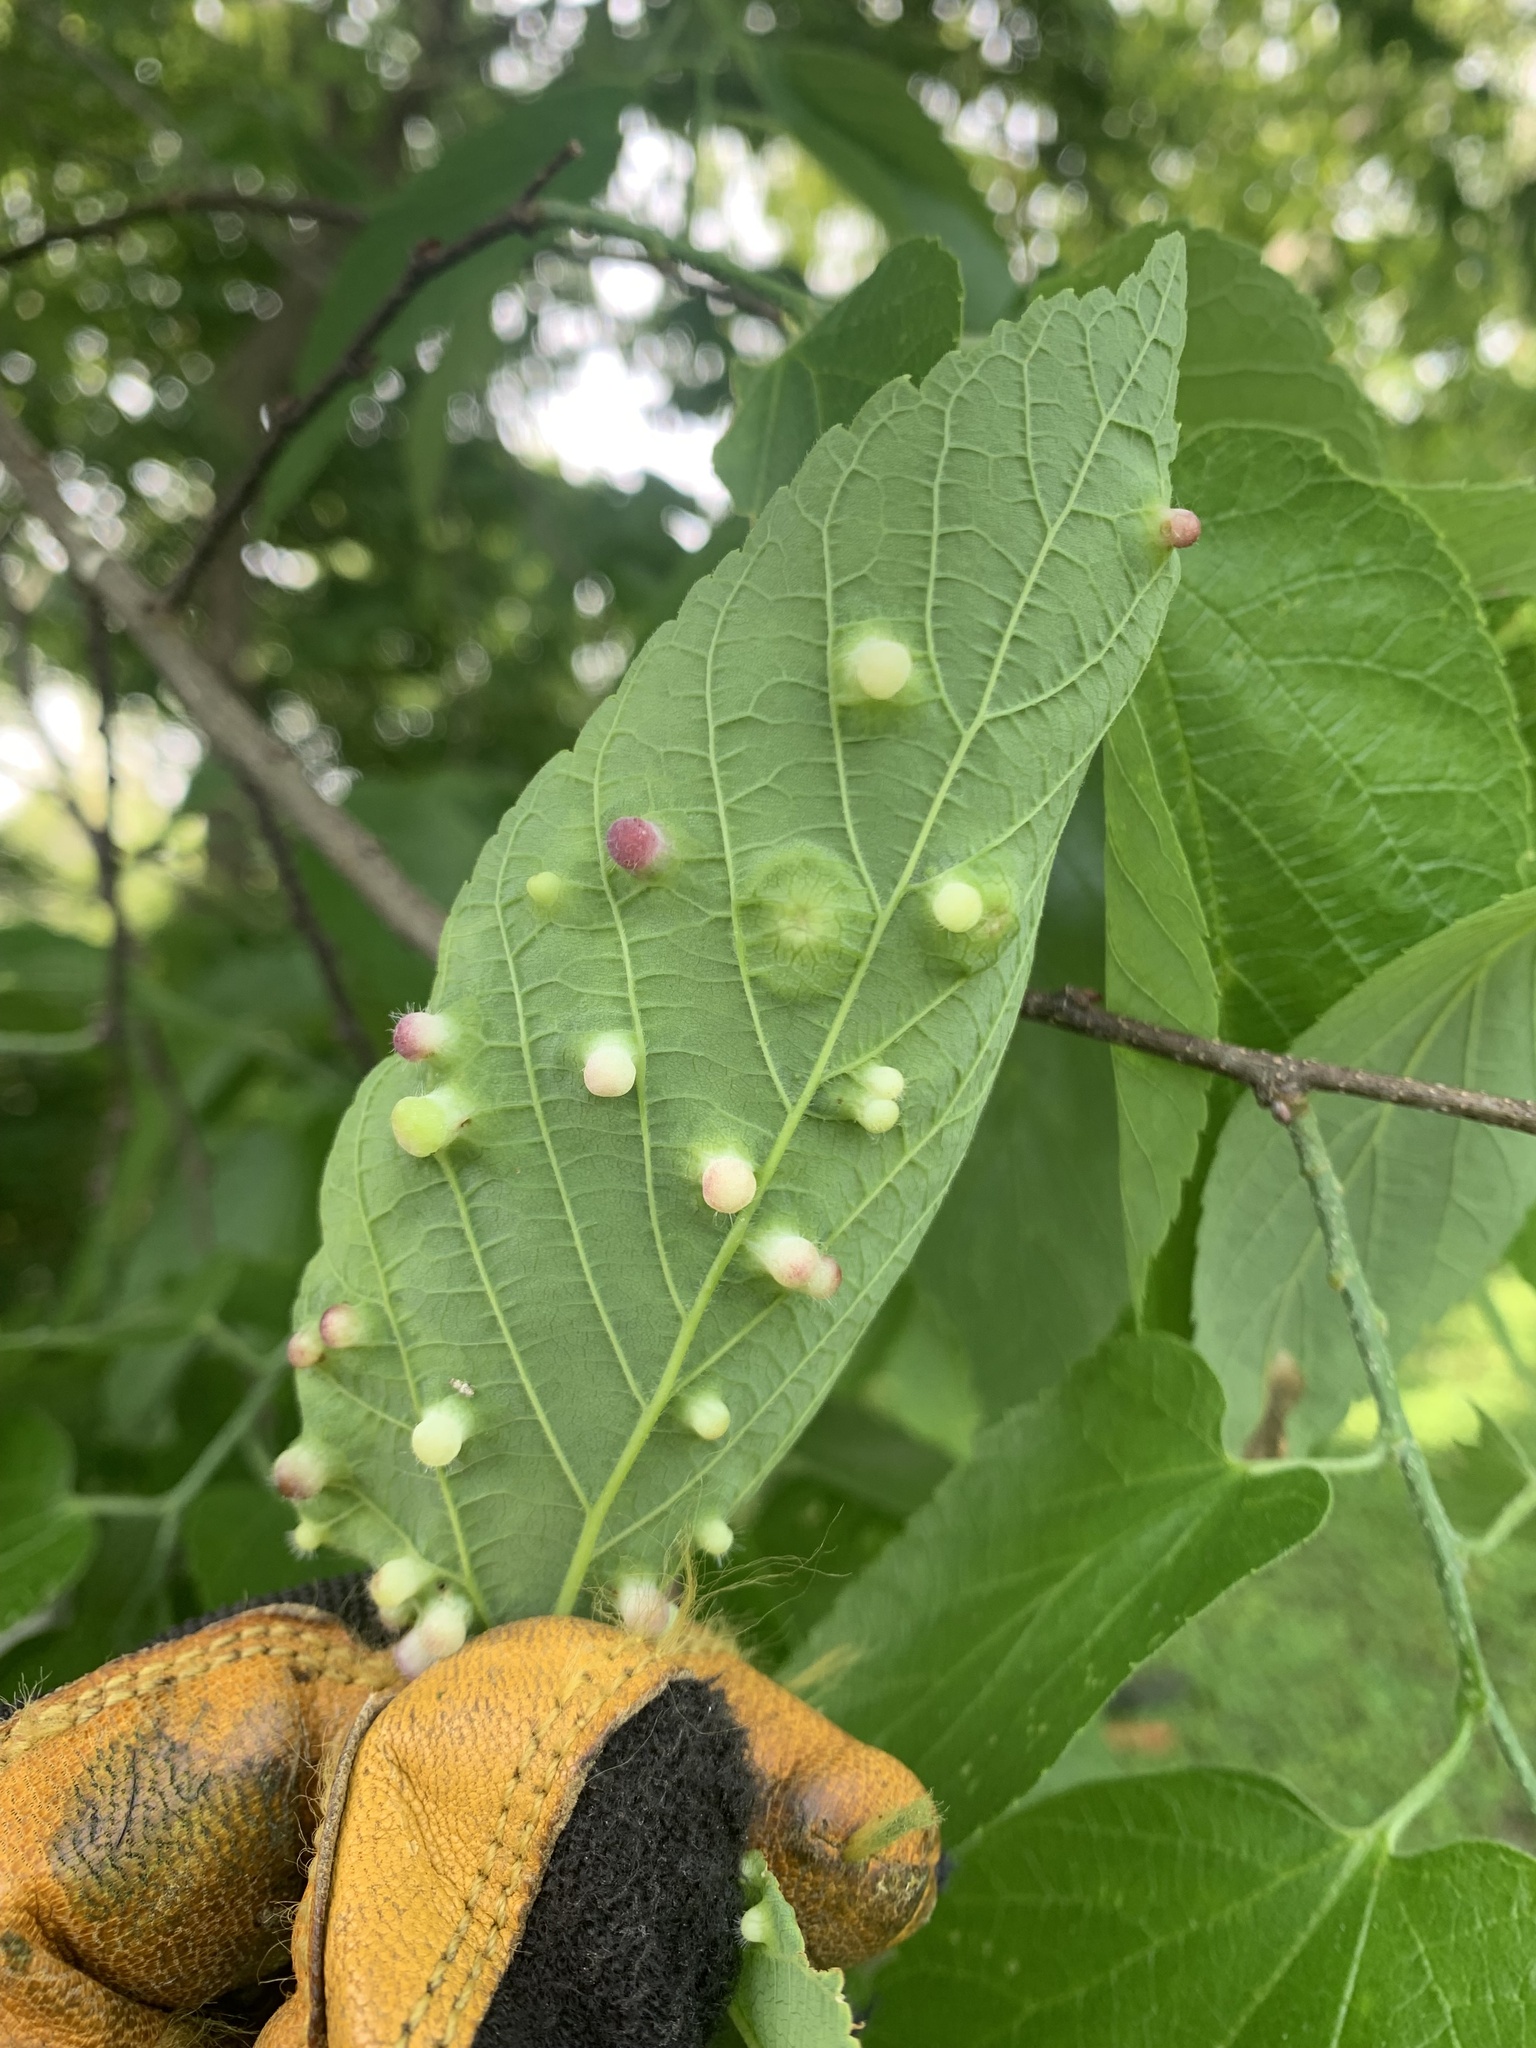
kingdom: Animalia
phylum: Arthropoda
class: Insecta
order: Hemiptera
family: Aphalaridae
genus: Pachypsylla
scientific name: Pachypsylla celtidismamma
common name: Hackberry nipplegall psyllid
